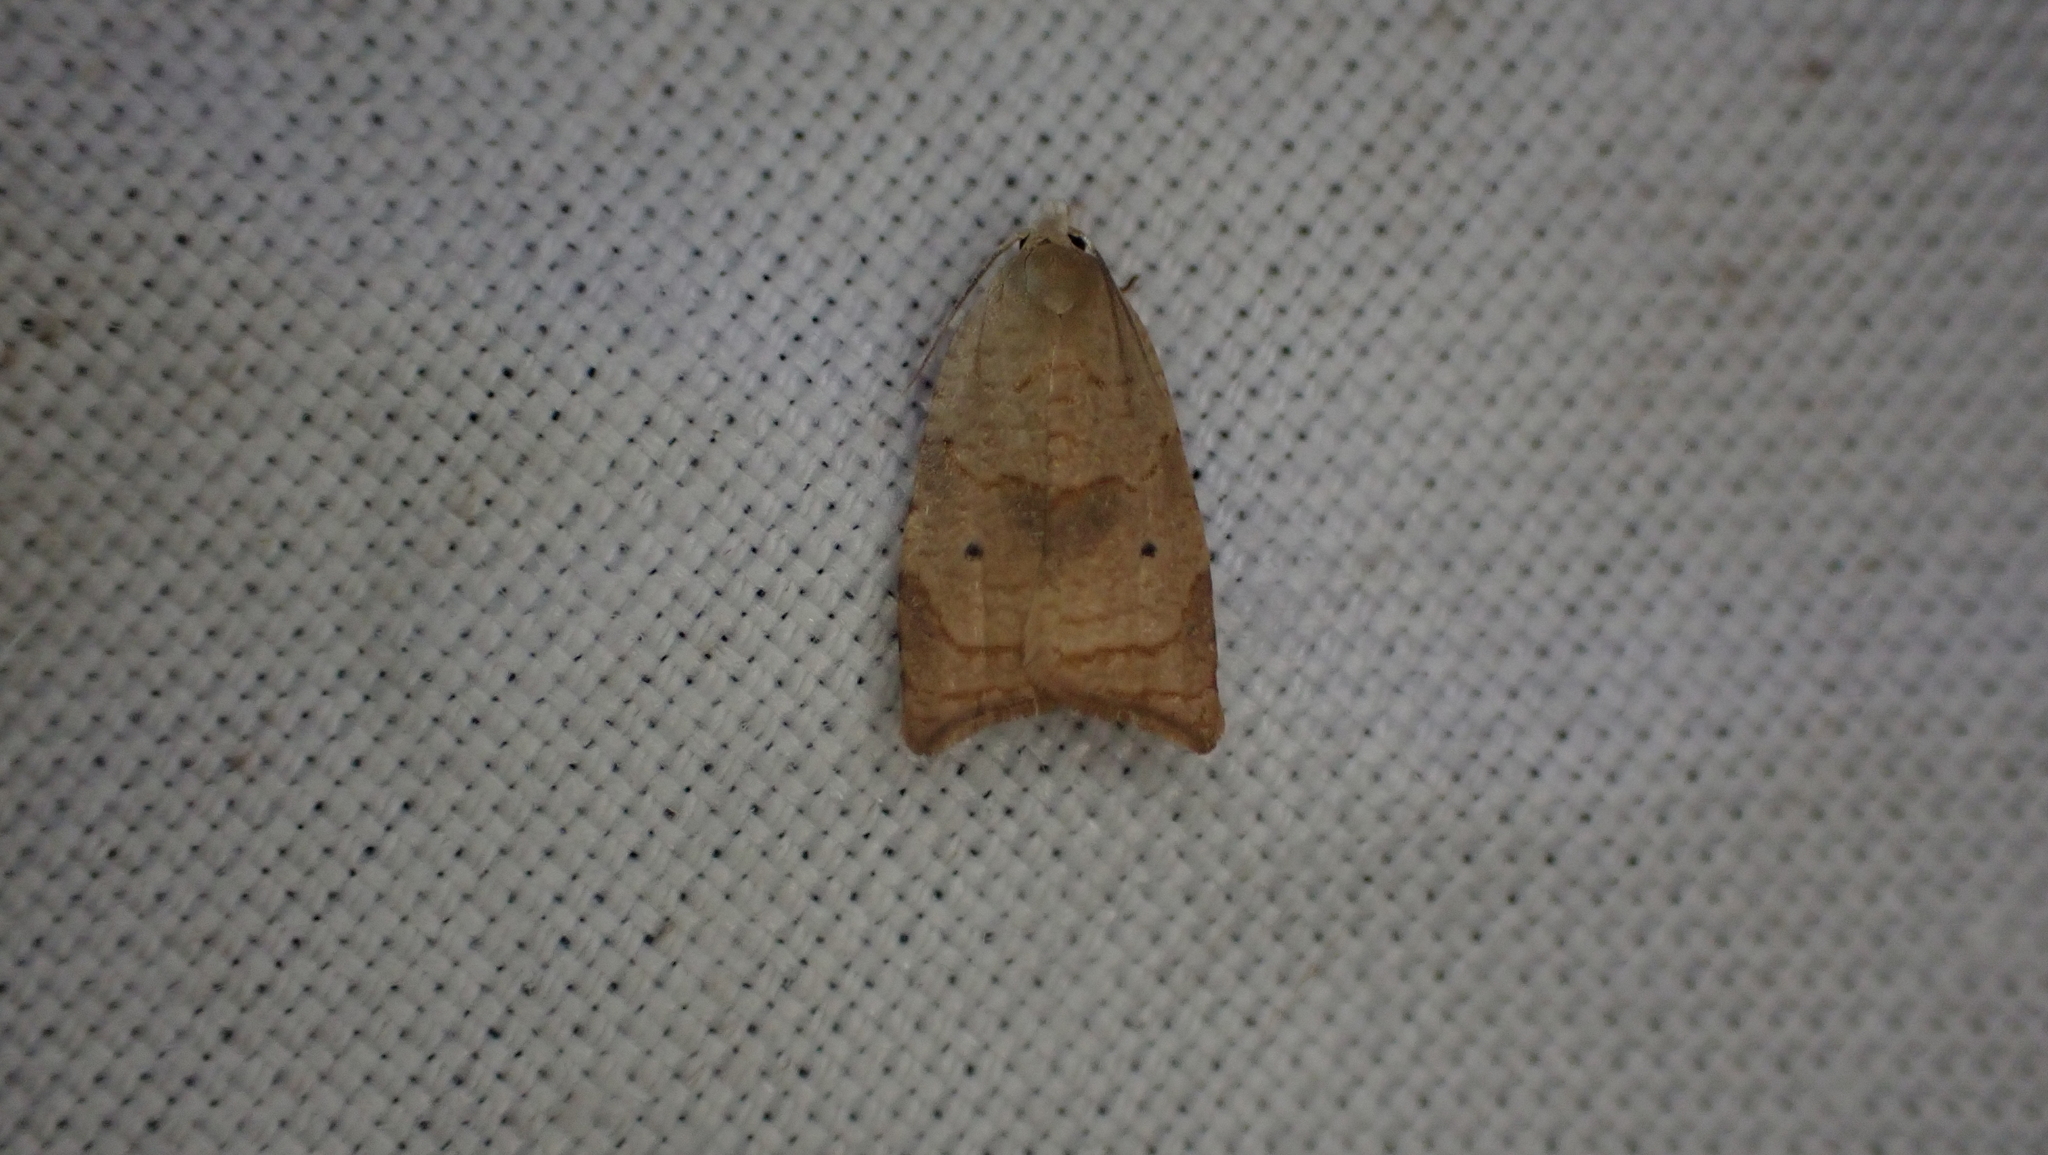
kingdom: Animalia
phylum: Arthropoda
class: Insecta
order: Lepidoptera
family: Tortricidae
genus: Coelostathma
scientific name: Coelostathma discopunctana
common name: Batman moth
